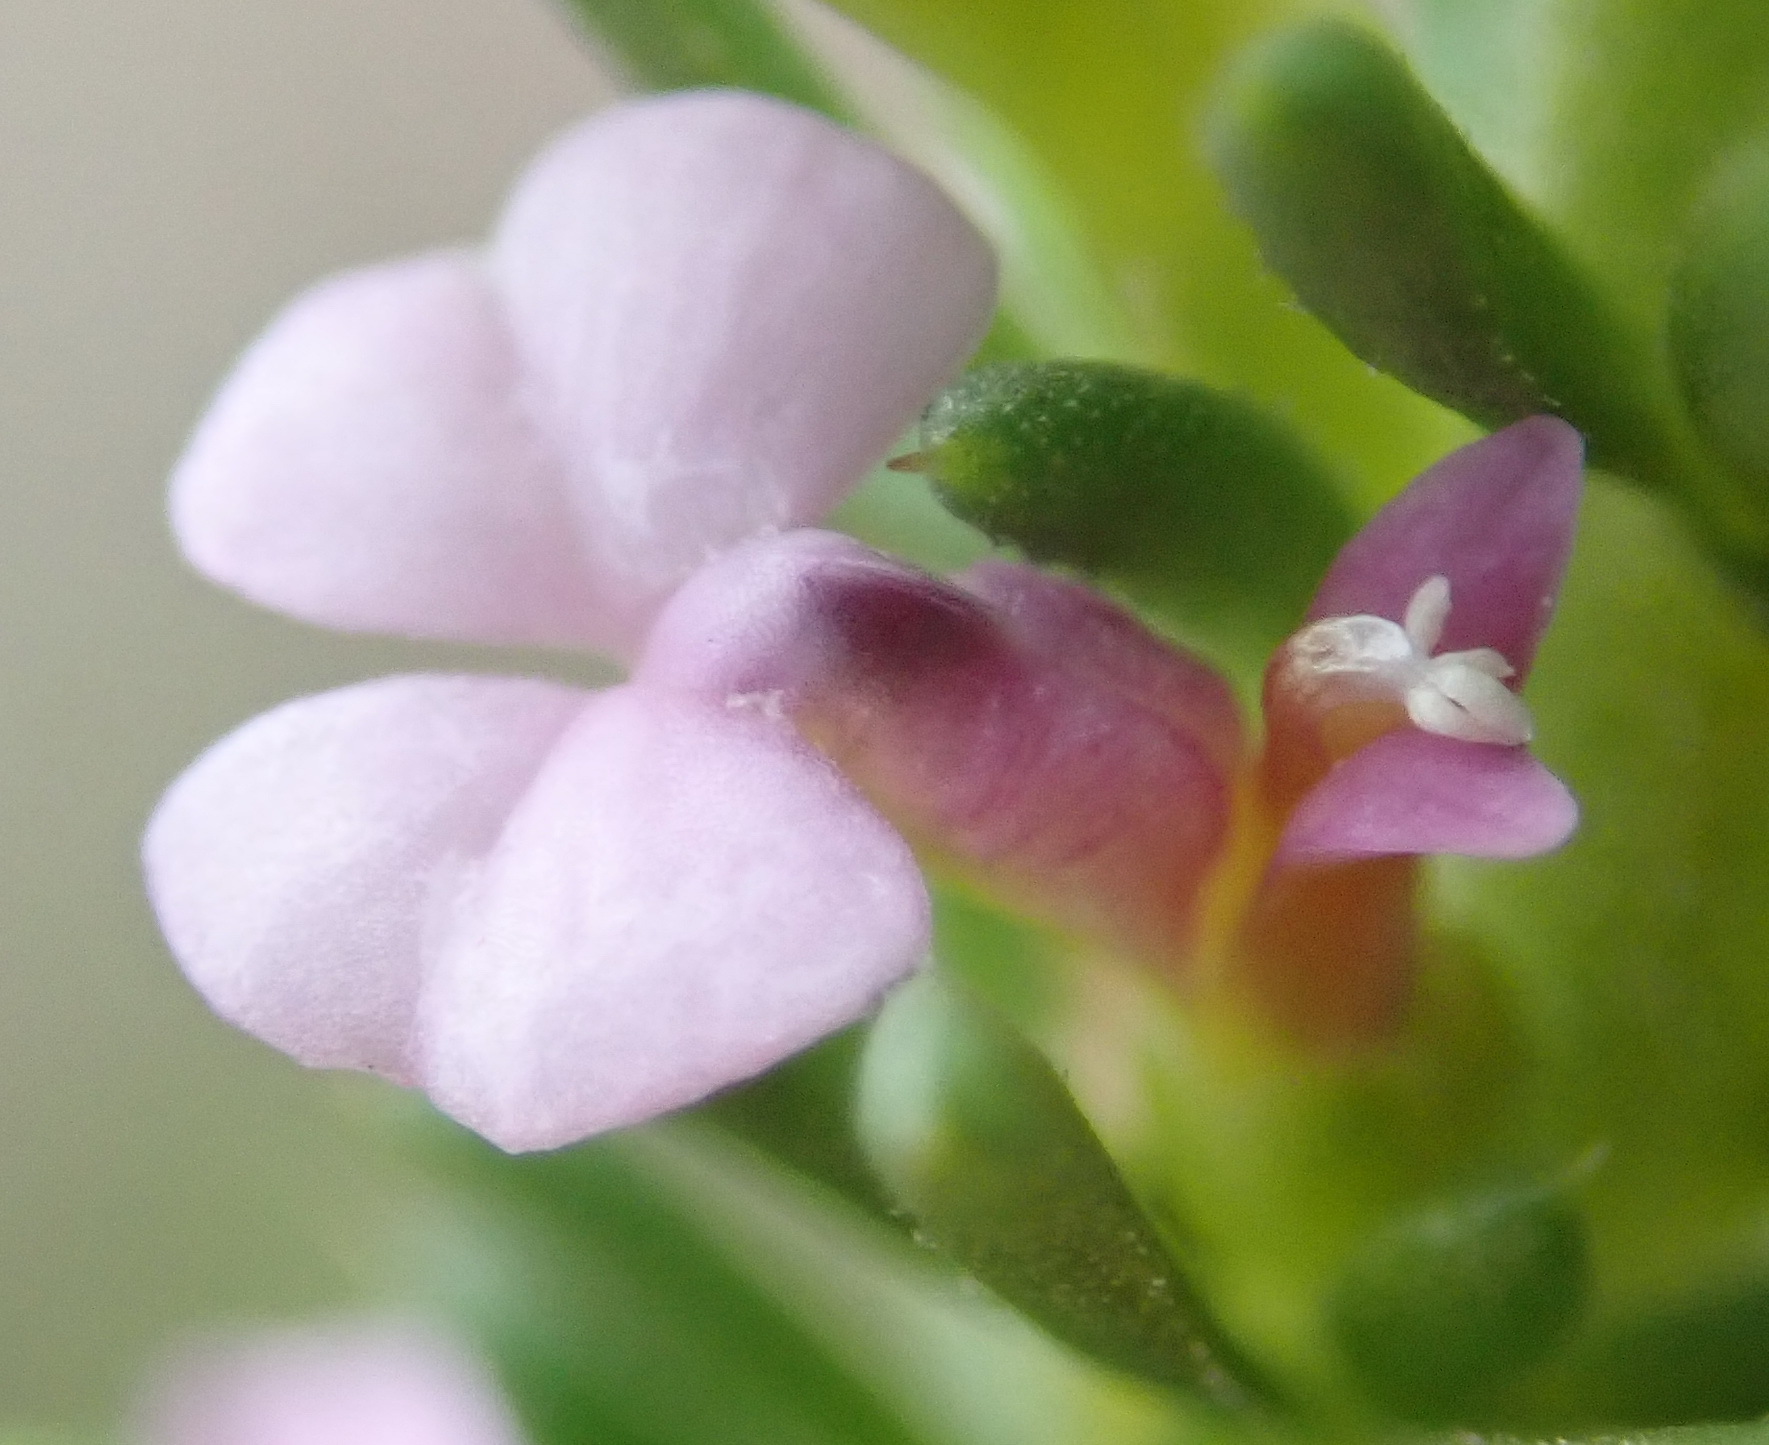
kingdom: Plantae
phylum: Tracheophyta
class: Magnoliopsida
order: Fabales
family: Polygalaceae
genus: Muraltia
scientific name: Muraltia satureioides
